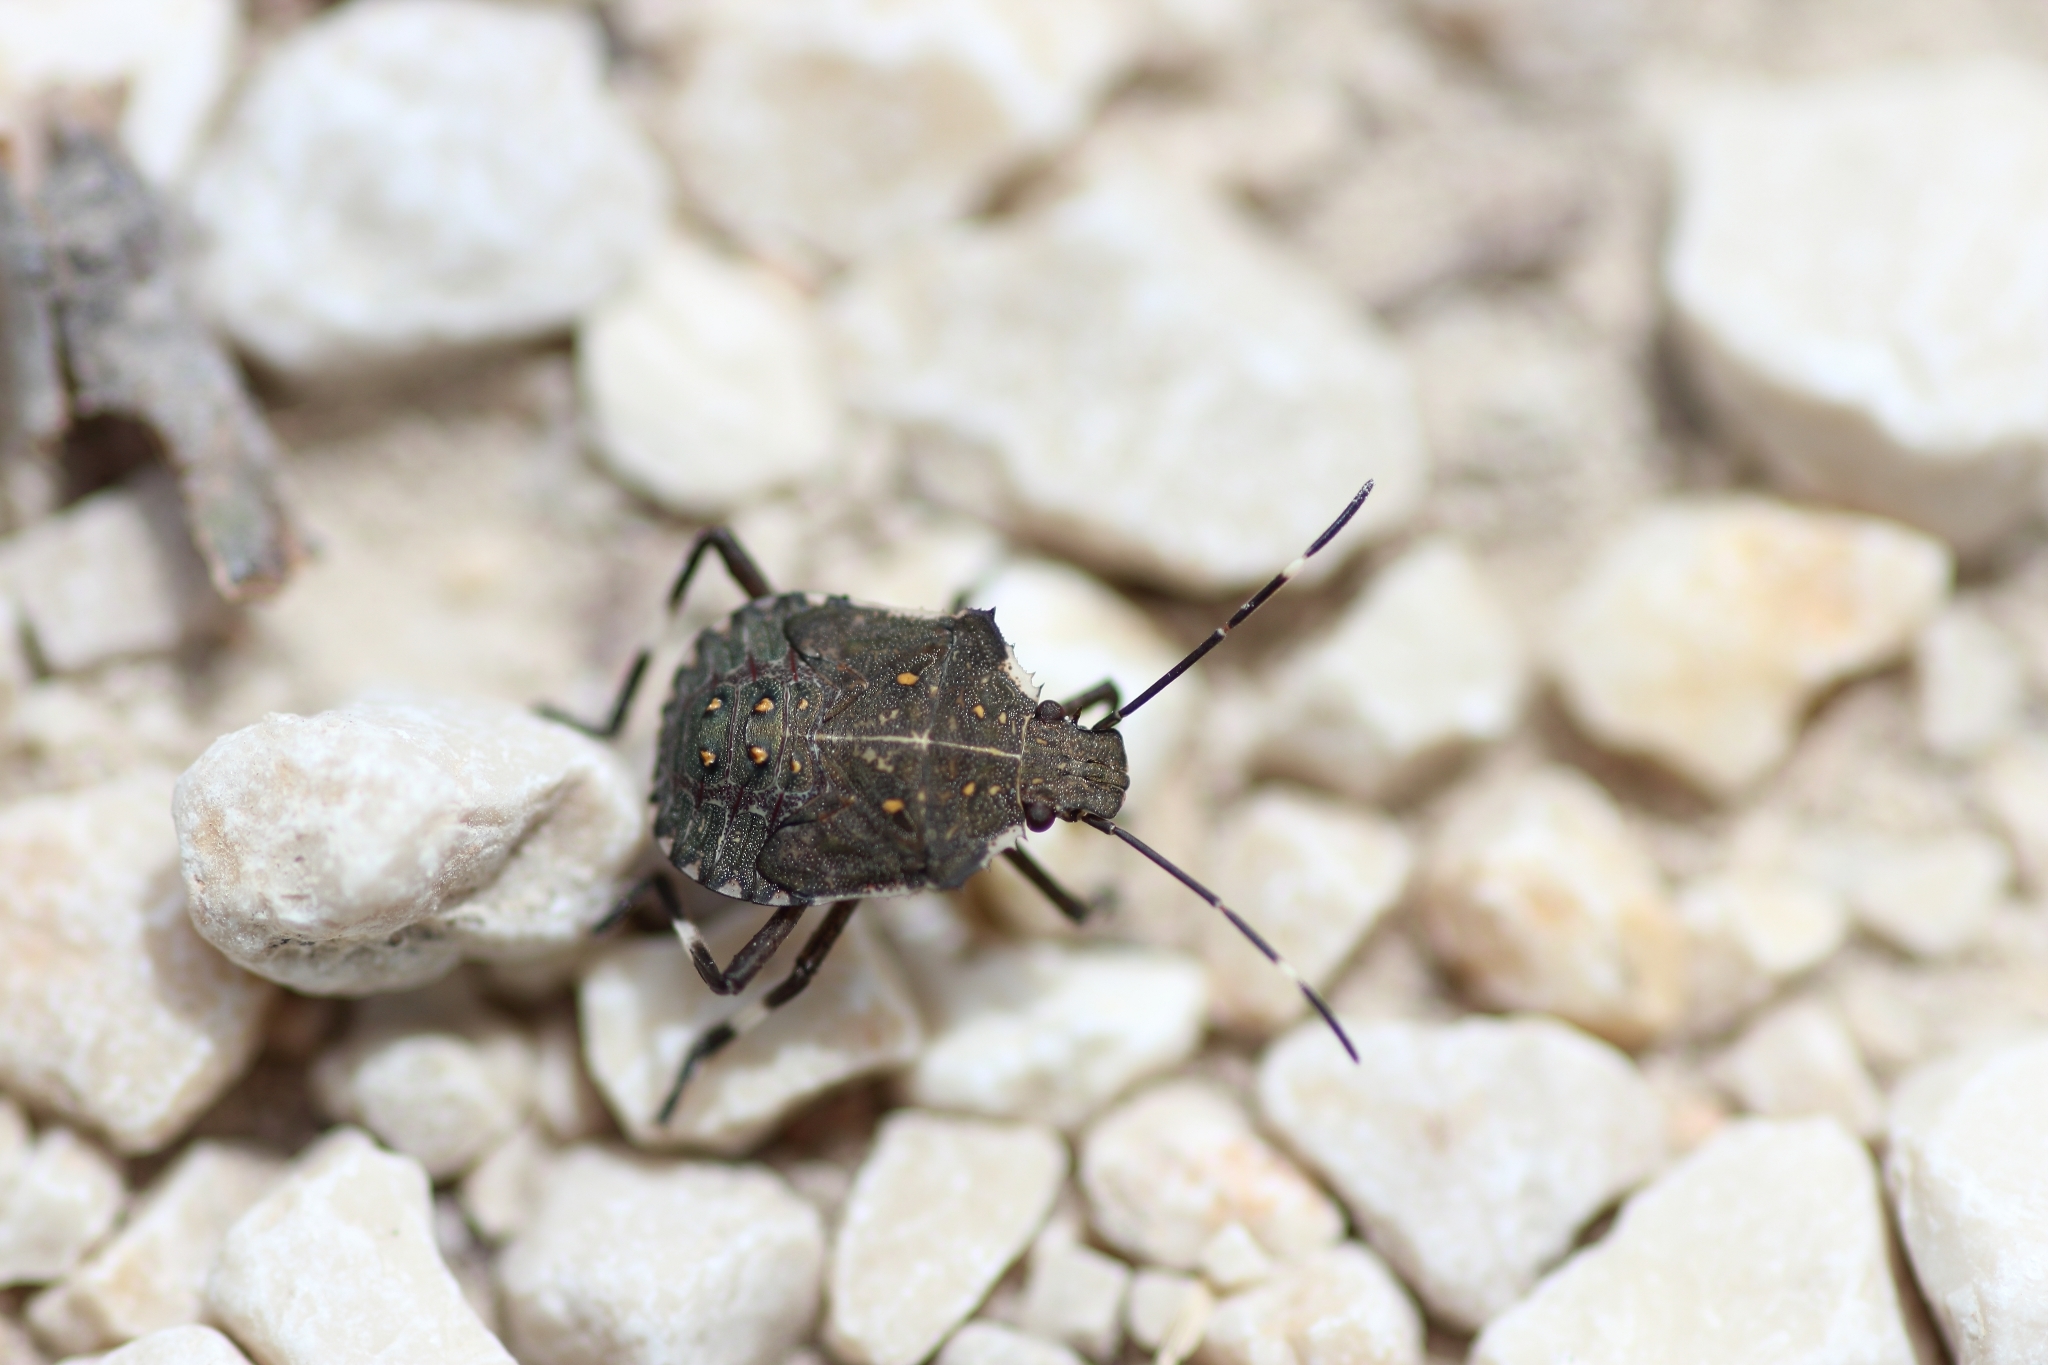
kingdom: Animalia
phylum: Arthropoda
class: Insecta
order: Hemiptera
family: Pentatomidae
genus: Halyomorpha
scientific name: Halyomorpha halys
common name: Brown marmorated stink bug
